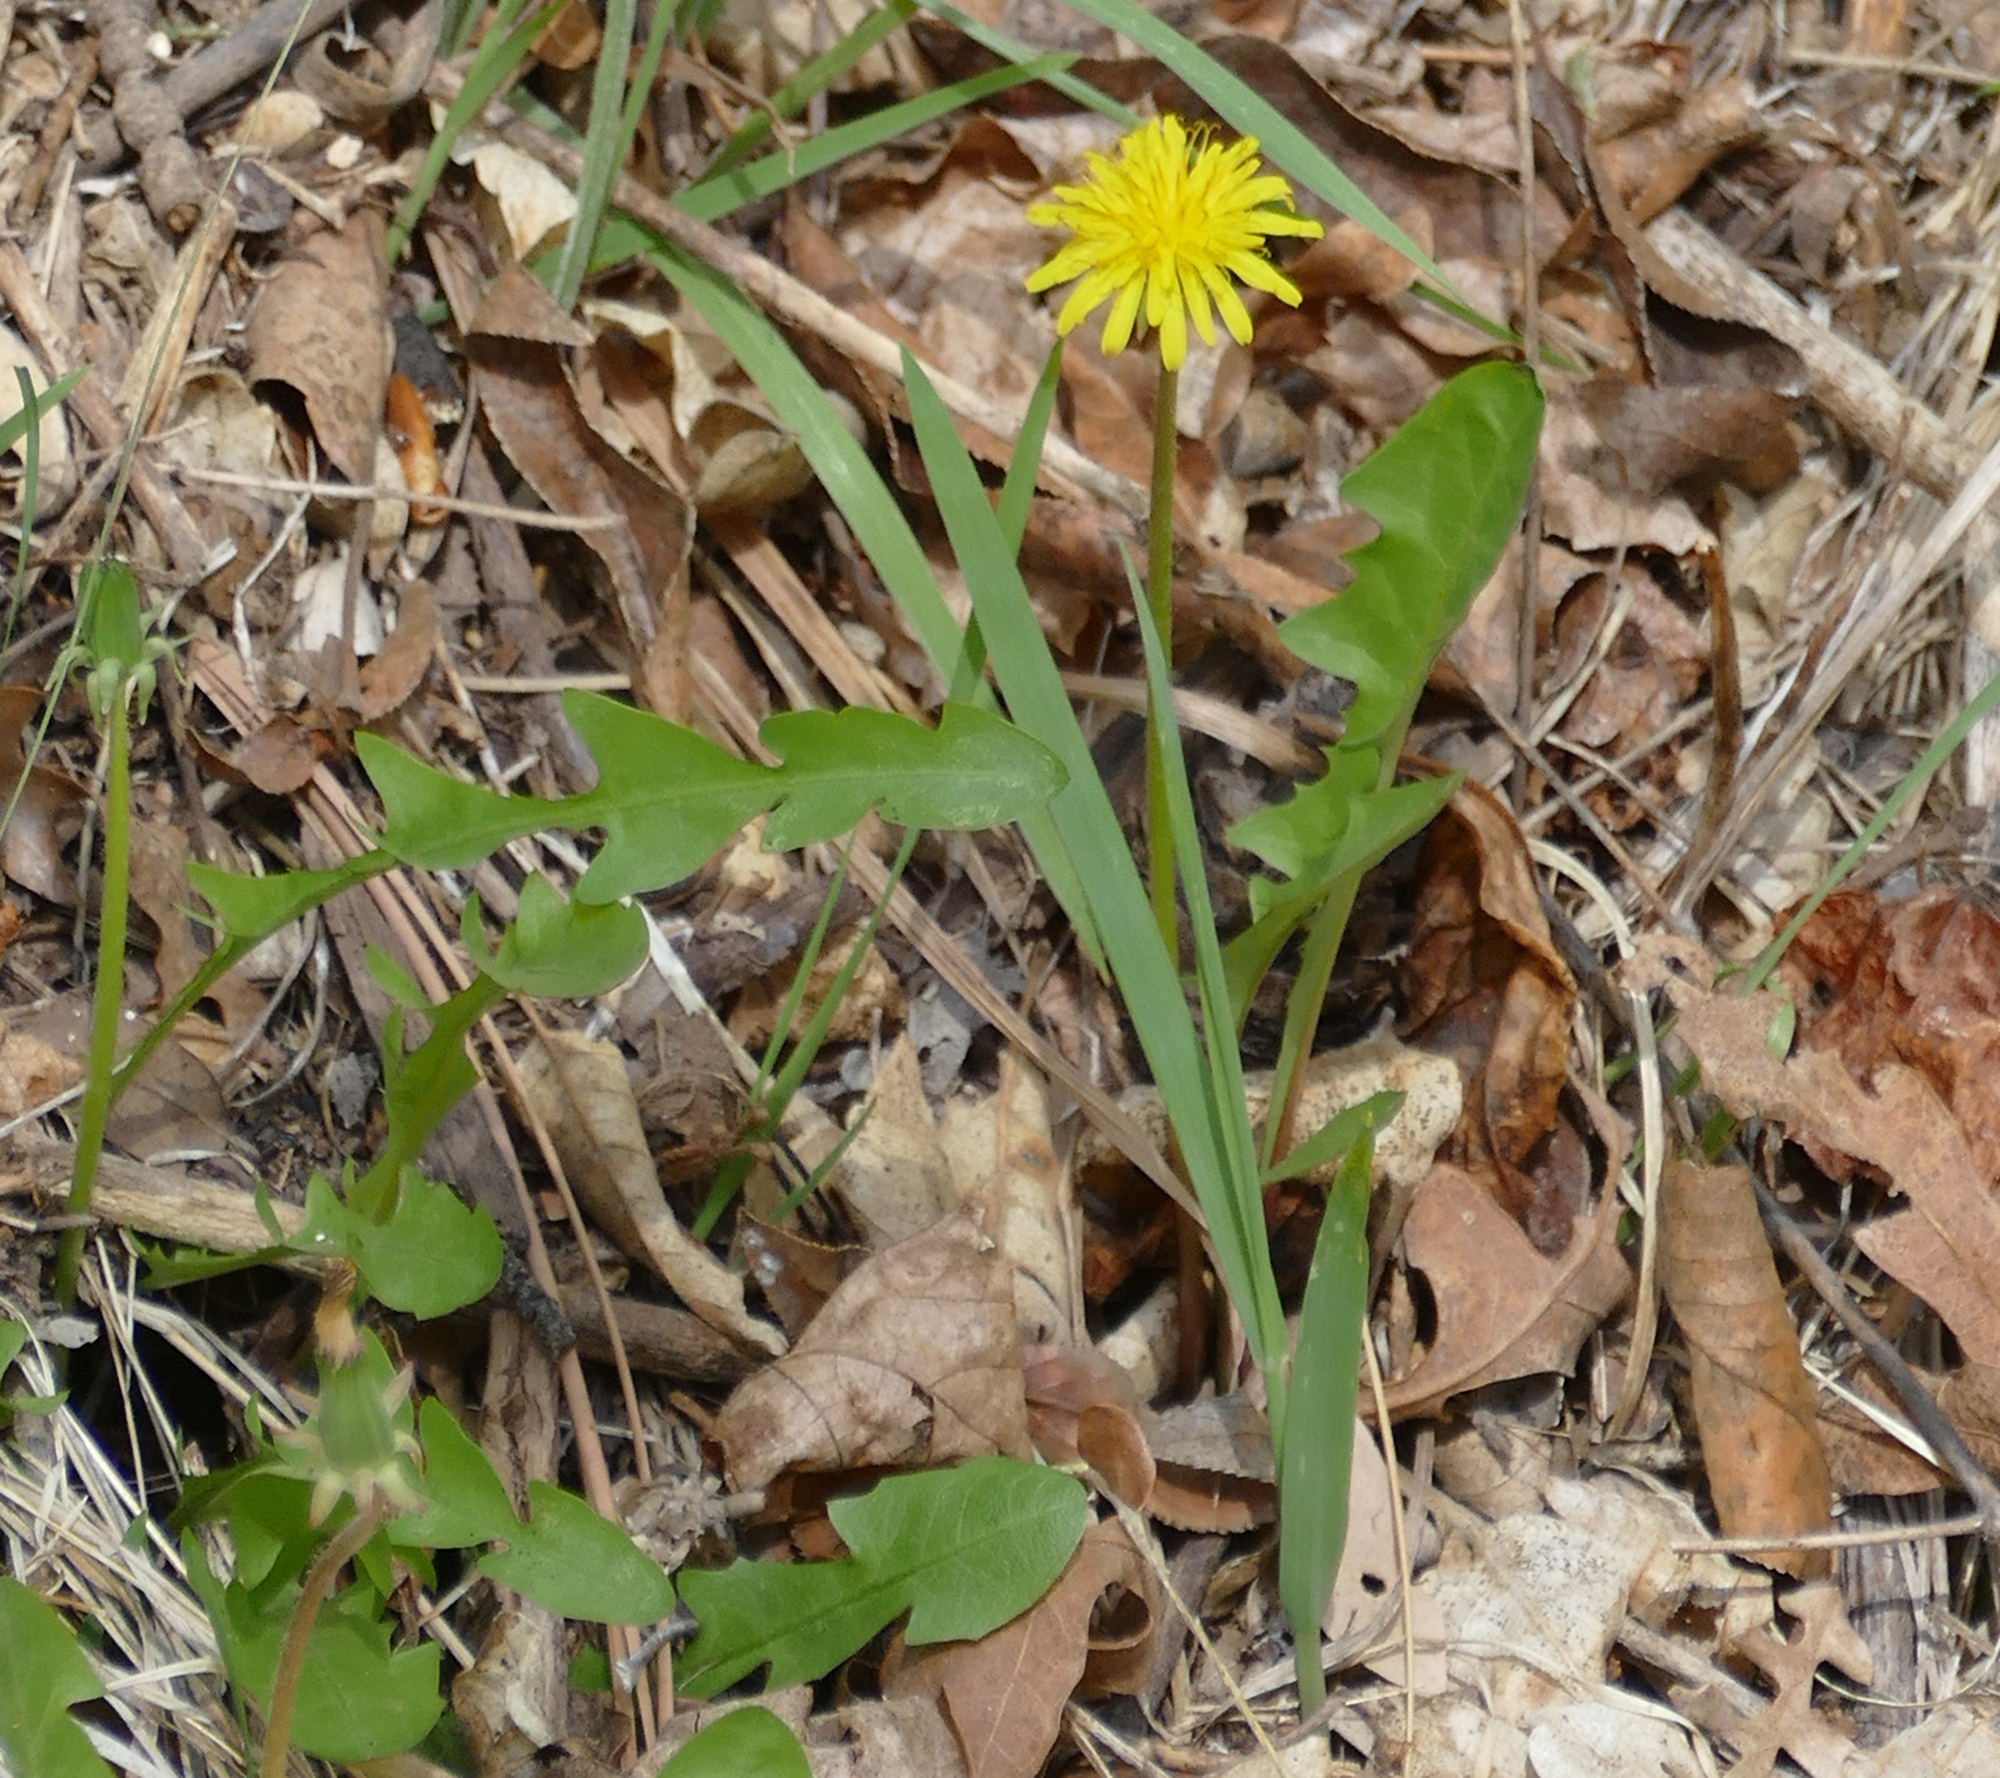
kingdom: Plantae
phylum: Tracheophyta
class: Magnoliopsida
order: Asterales
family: Asteraceae
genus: Taraxacum
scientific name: Taraxacum officinale
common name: Common dandelion
